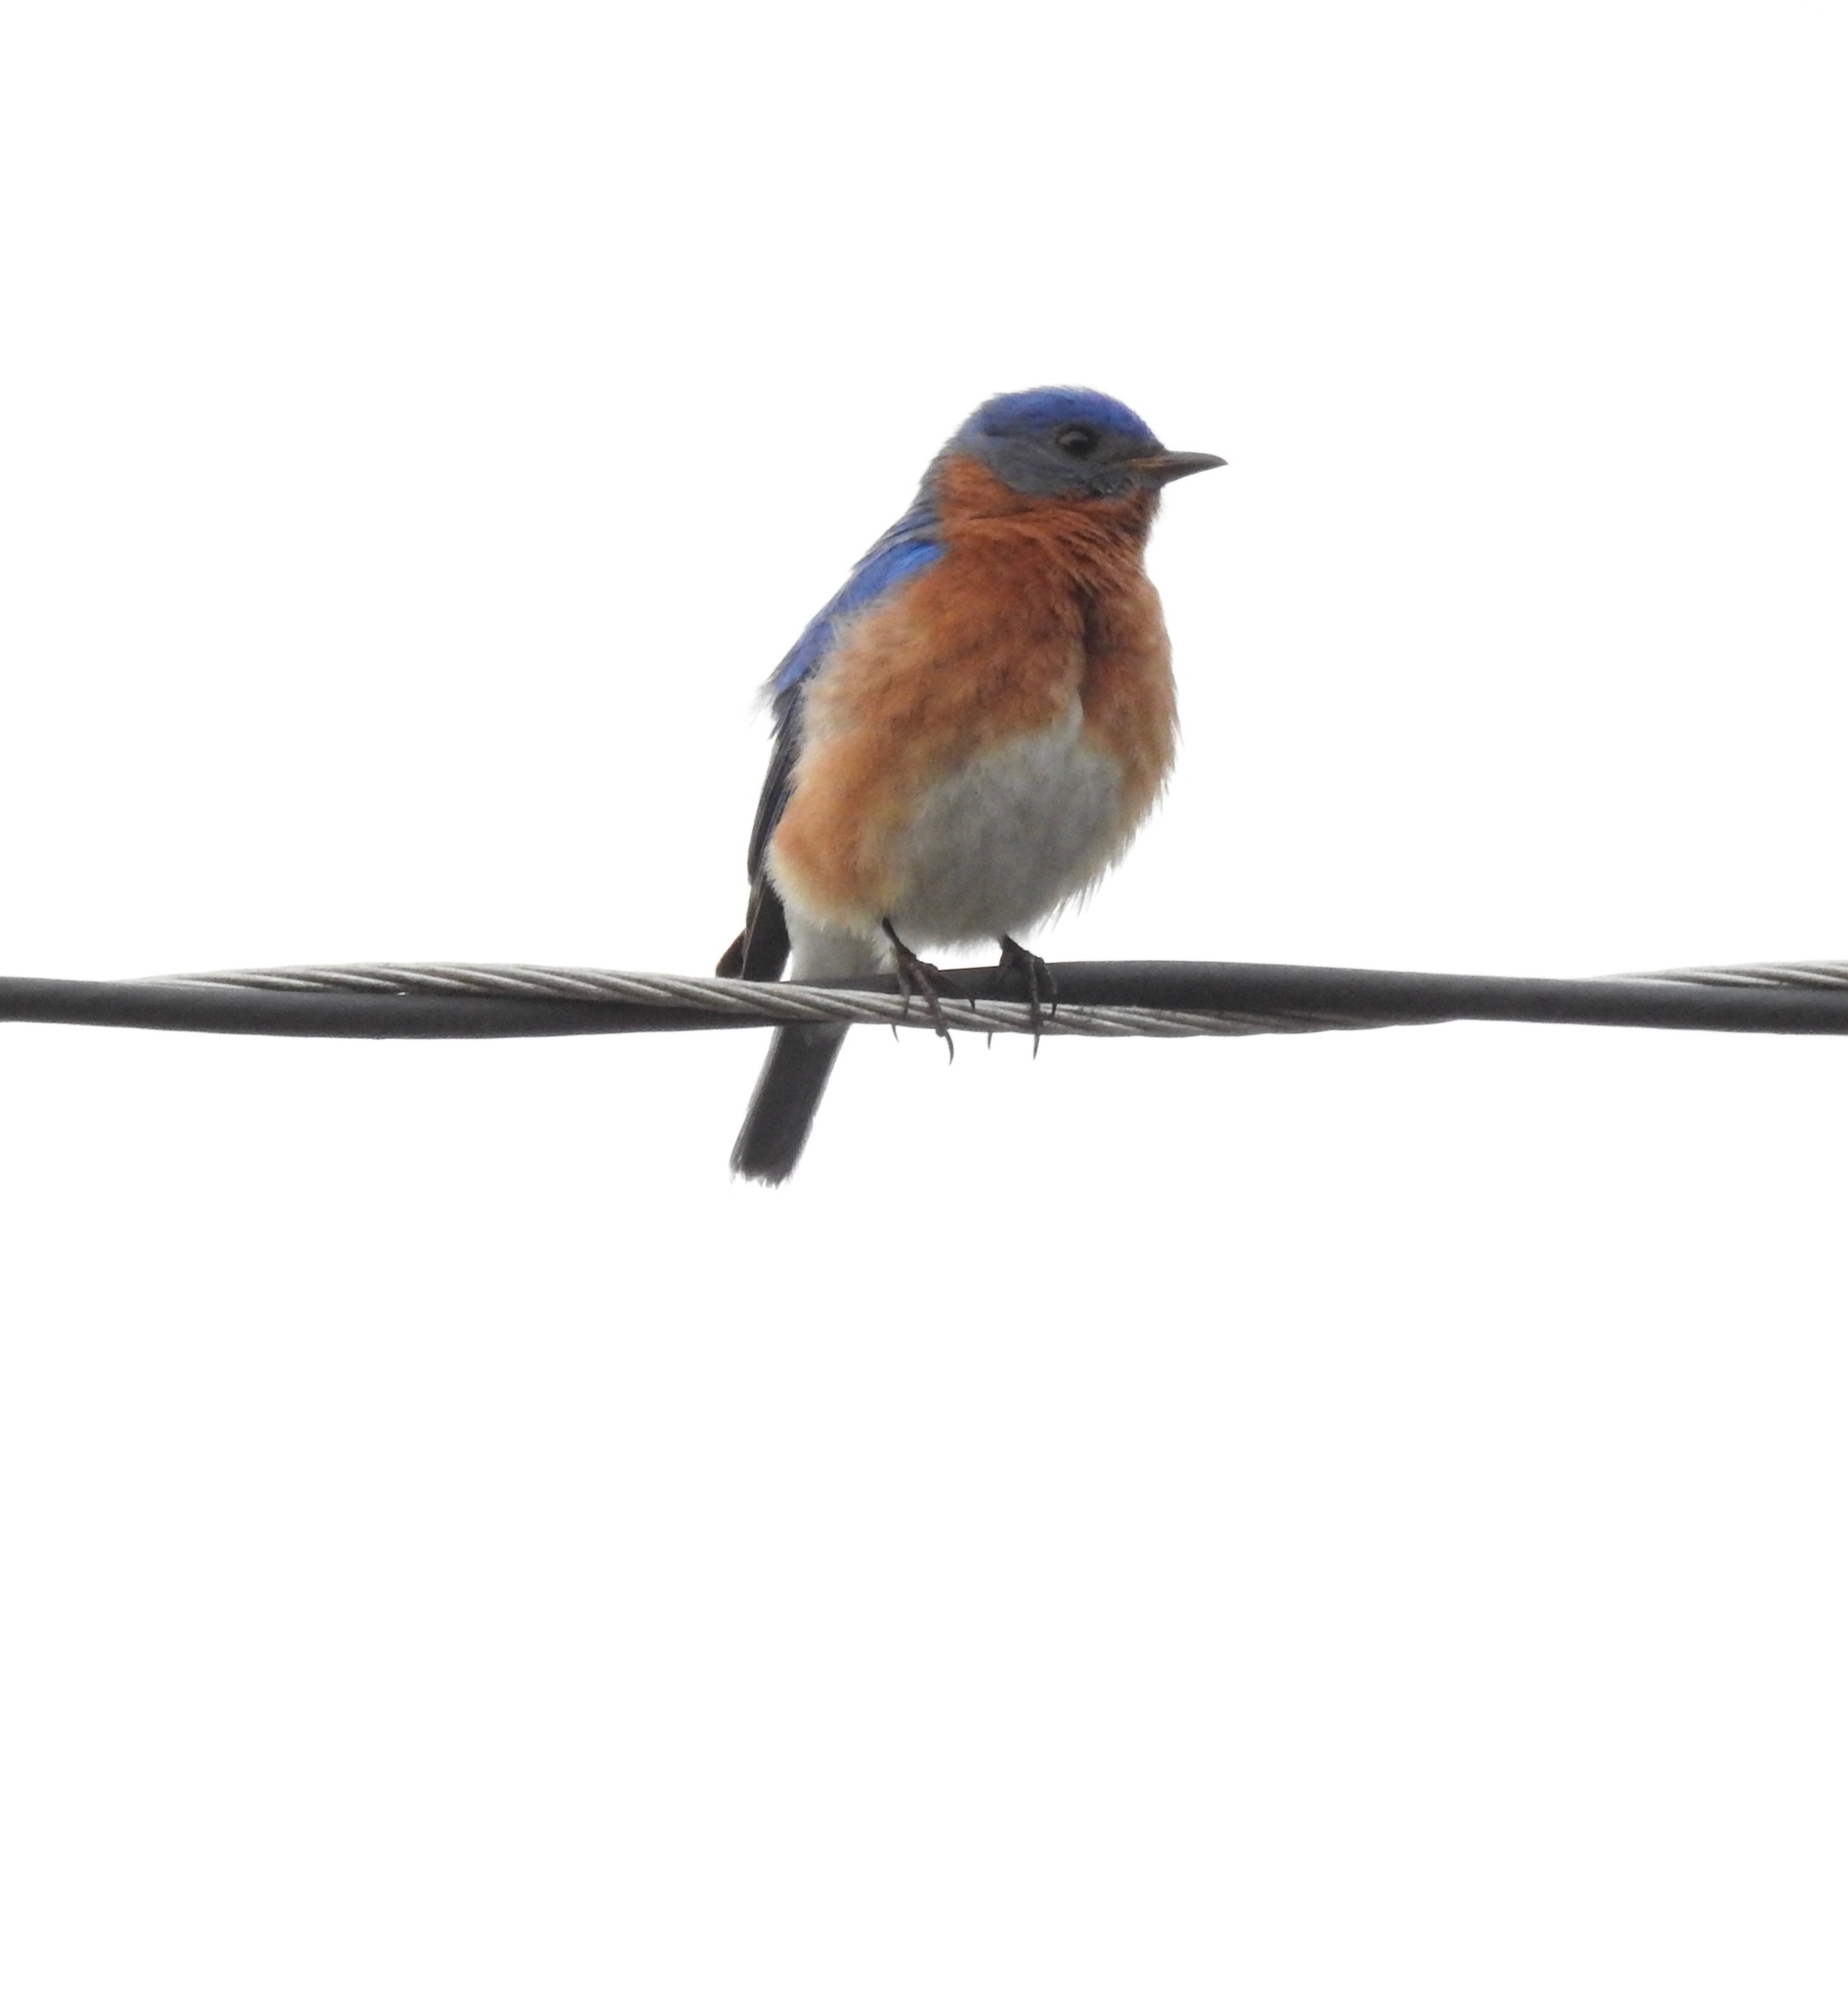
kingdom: Animalia
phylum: Chordata
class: Aves
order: Passeriformes
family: Turdidae
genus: Sialia
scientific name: Sialia sialis
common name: Eastern bluebird
